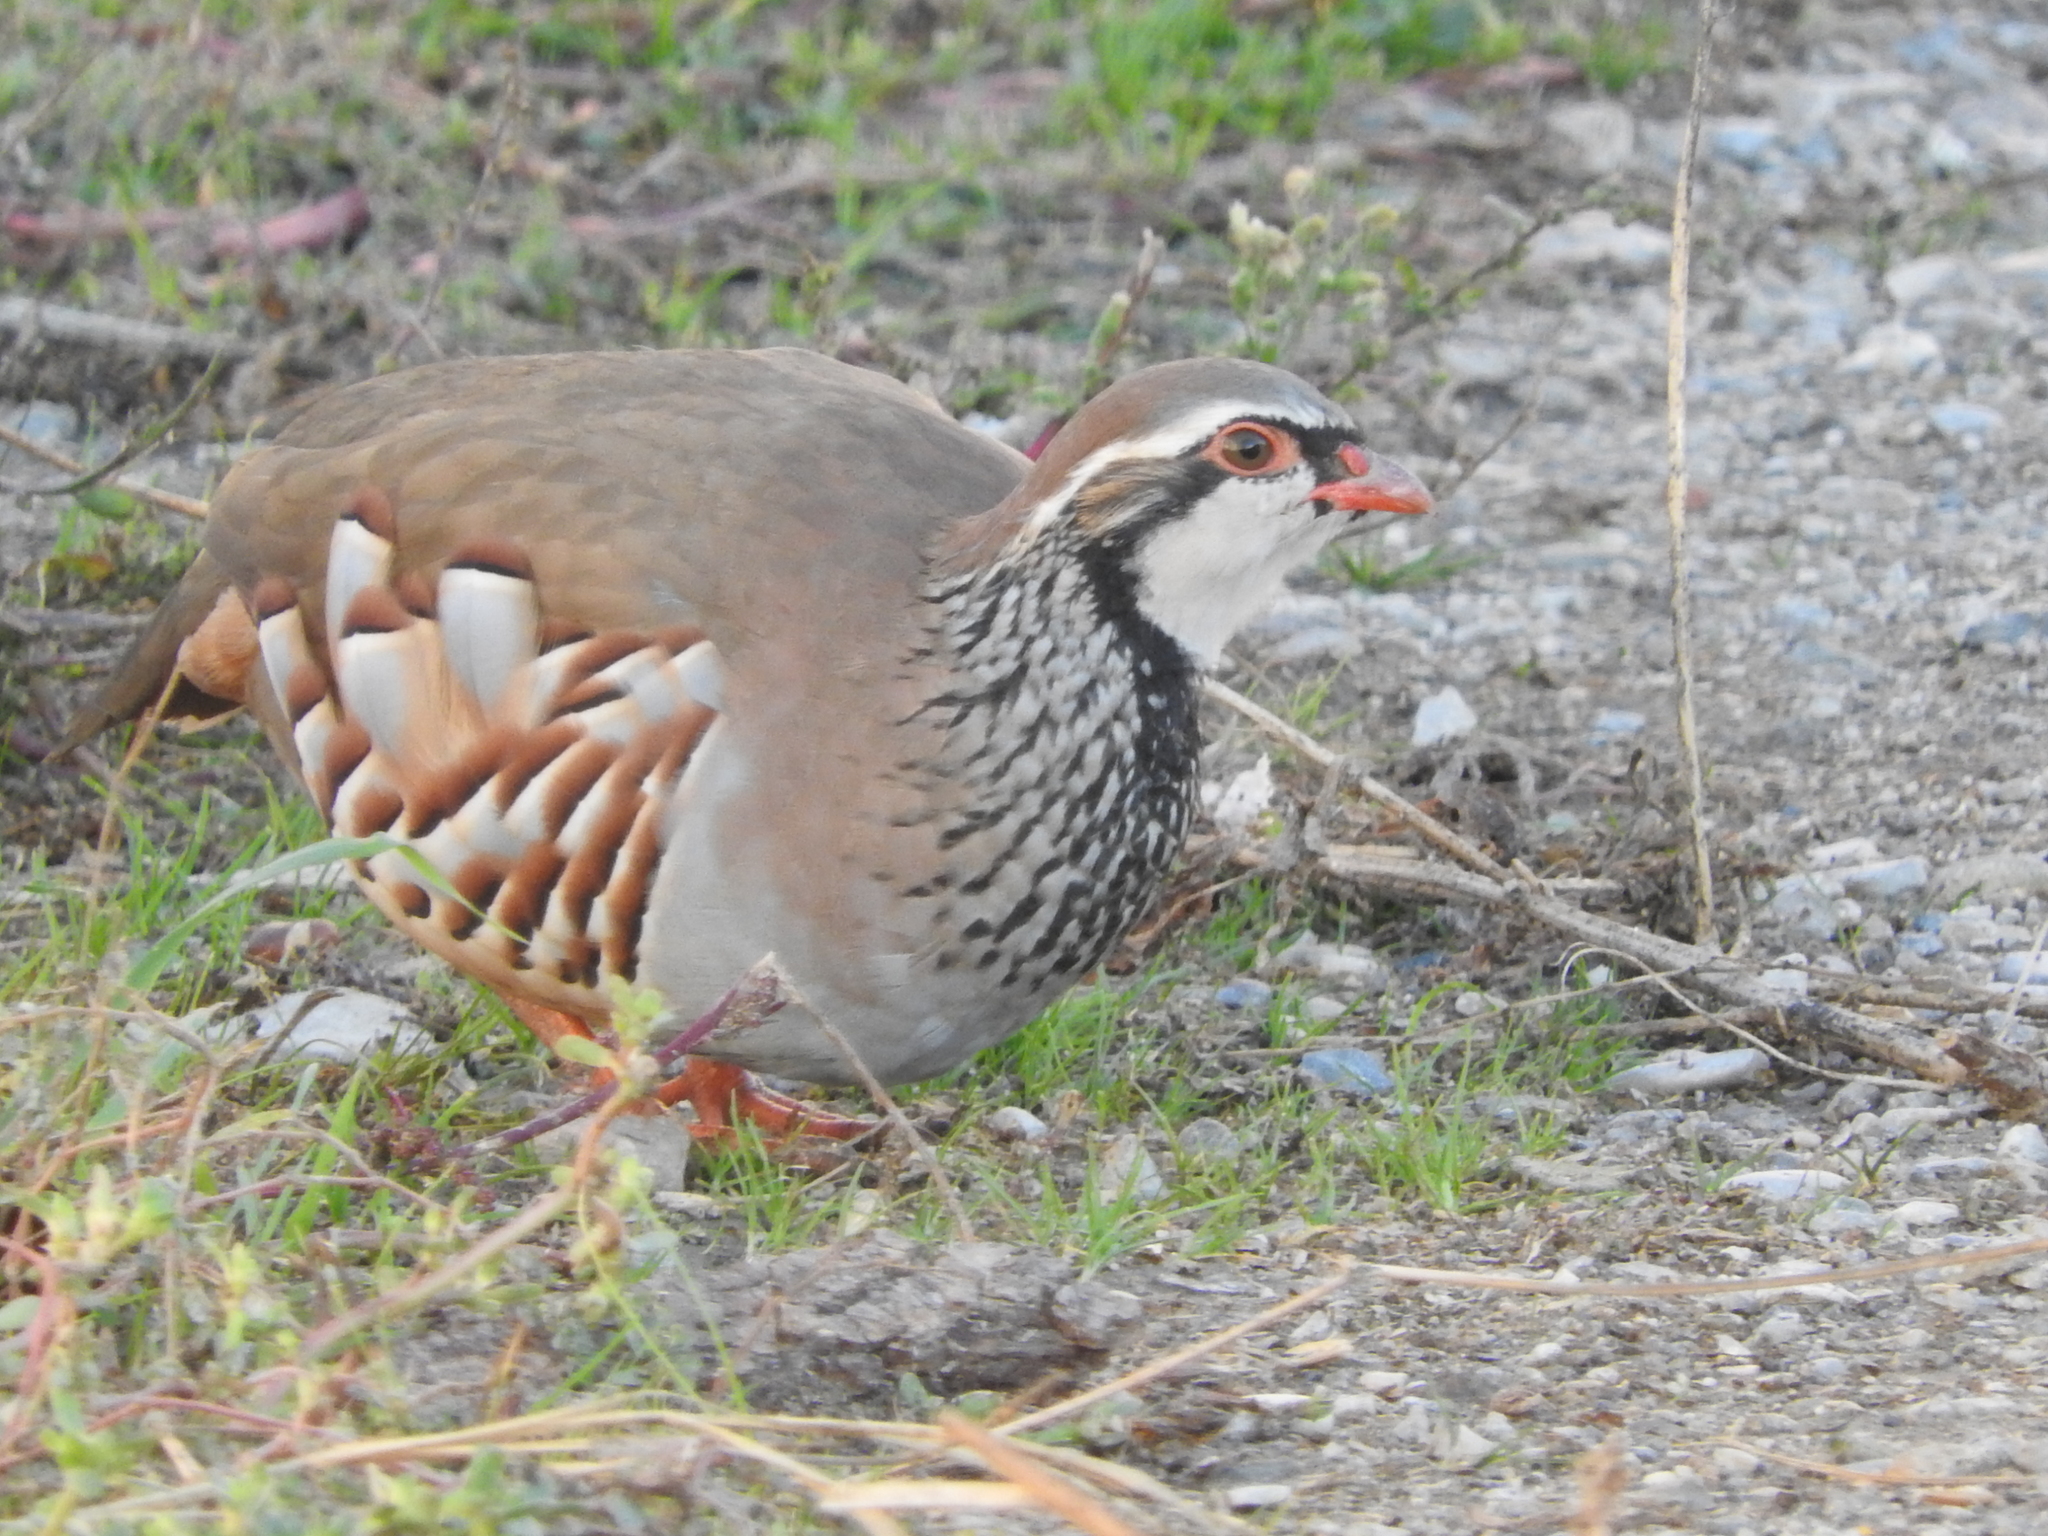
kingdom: Animalia
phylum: Chordata
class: Aves
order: Galliformes
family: Phasianidae
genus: Alectoris
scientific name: Alectoris rufa
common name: Red-legged partridge
